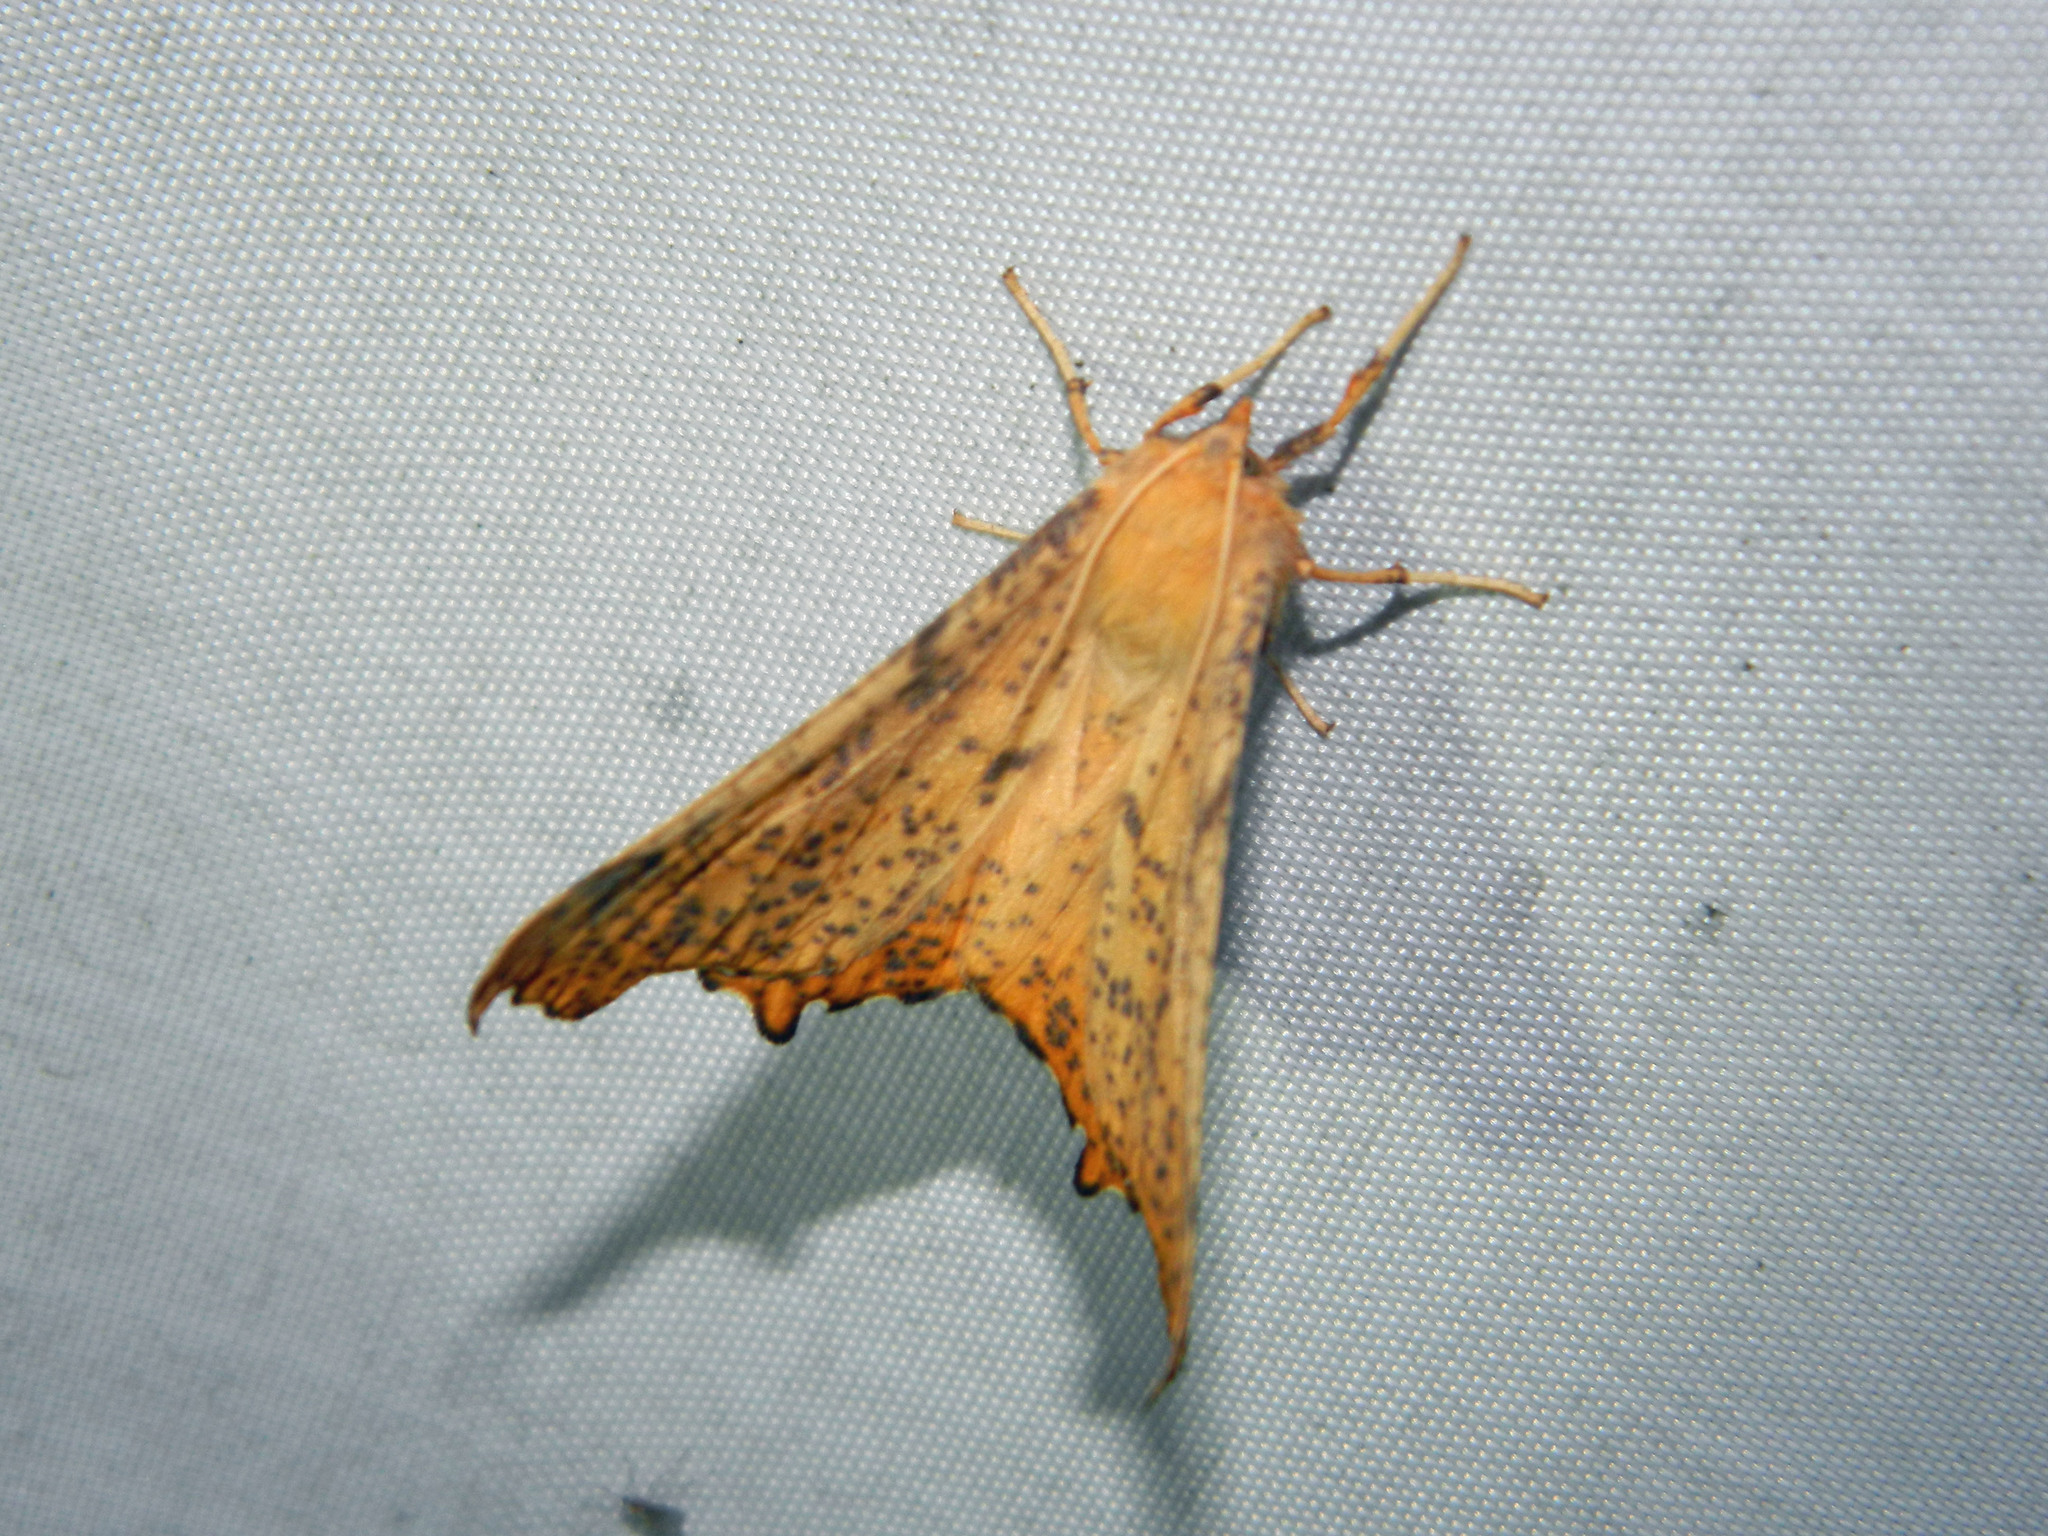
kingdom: Animalia
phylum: Arthropoda
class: Insecta
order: Lepidoptera
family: Geometridae
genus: Ennomos
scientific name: Ennomos magnaria
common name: Maple spanworm
